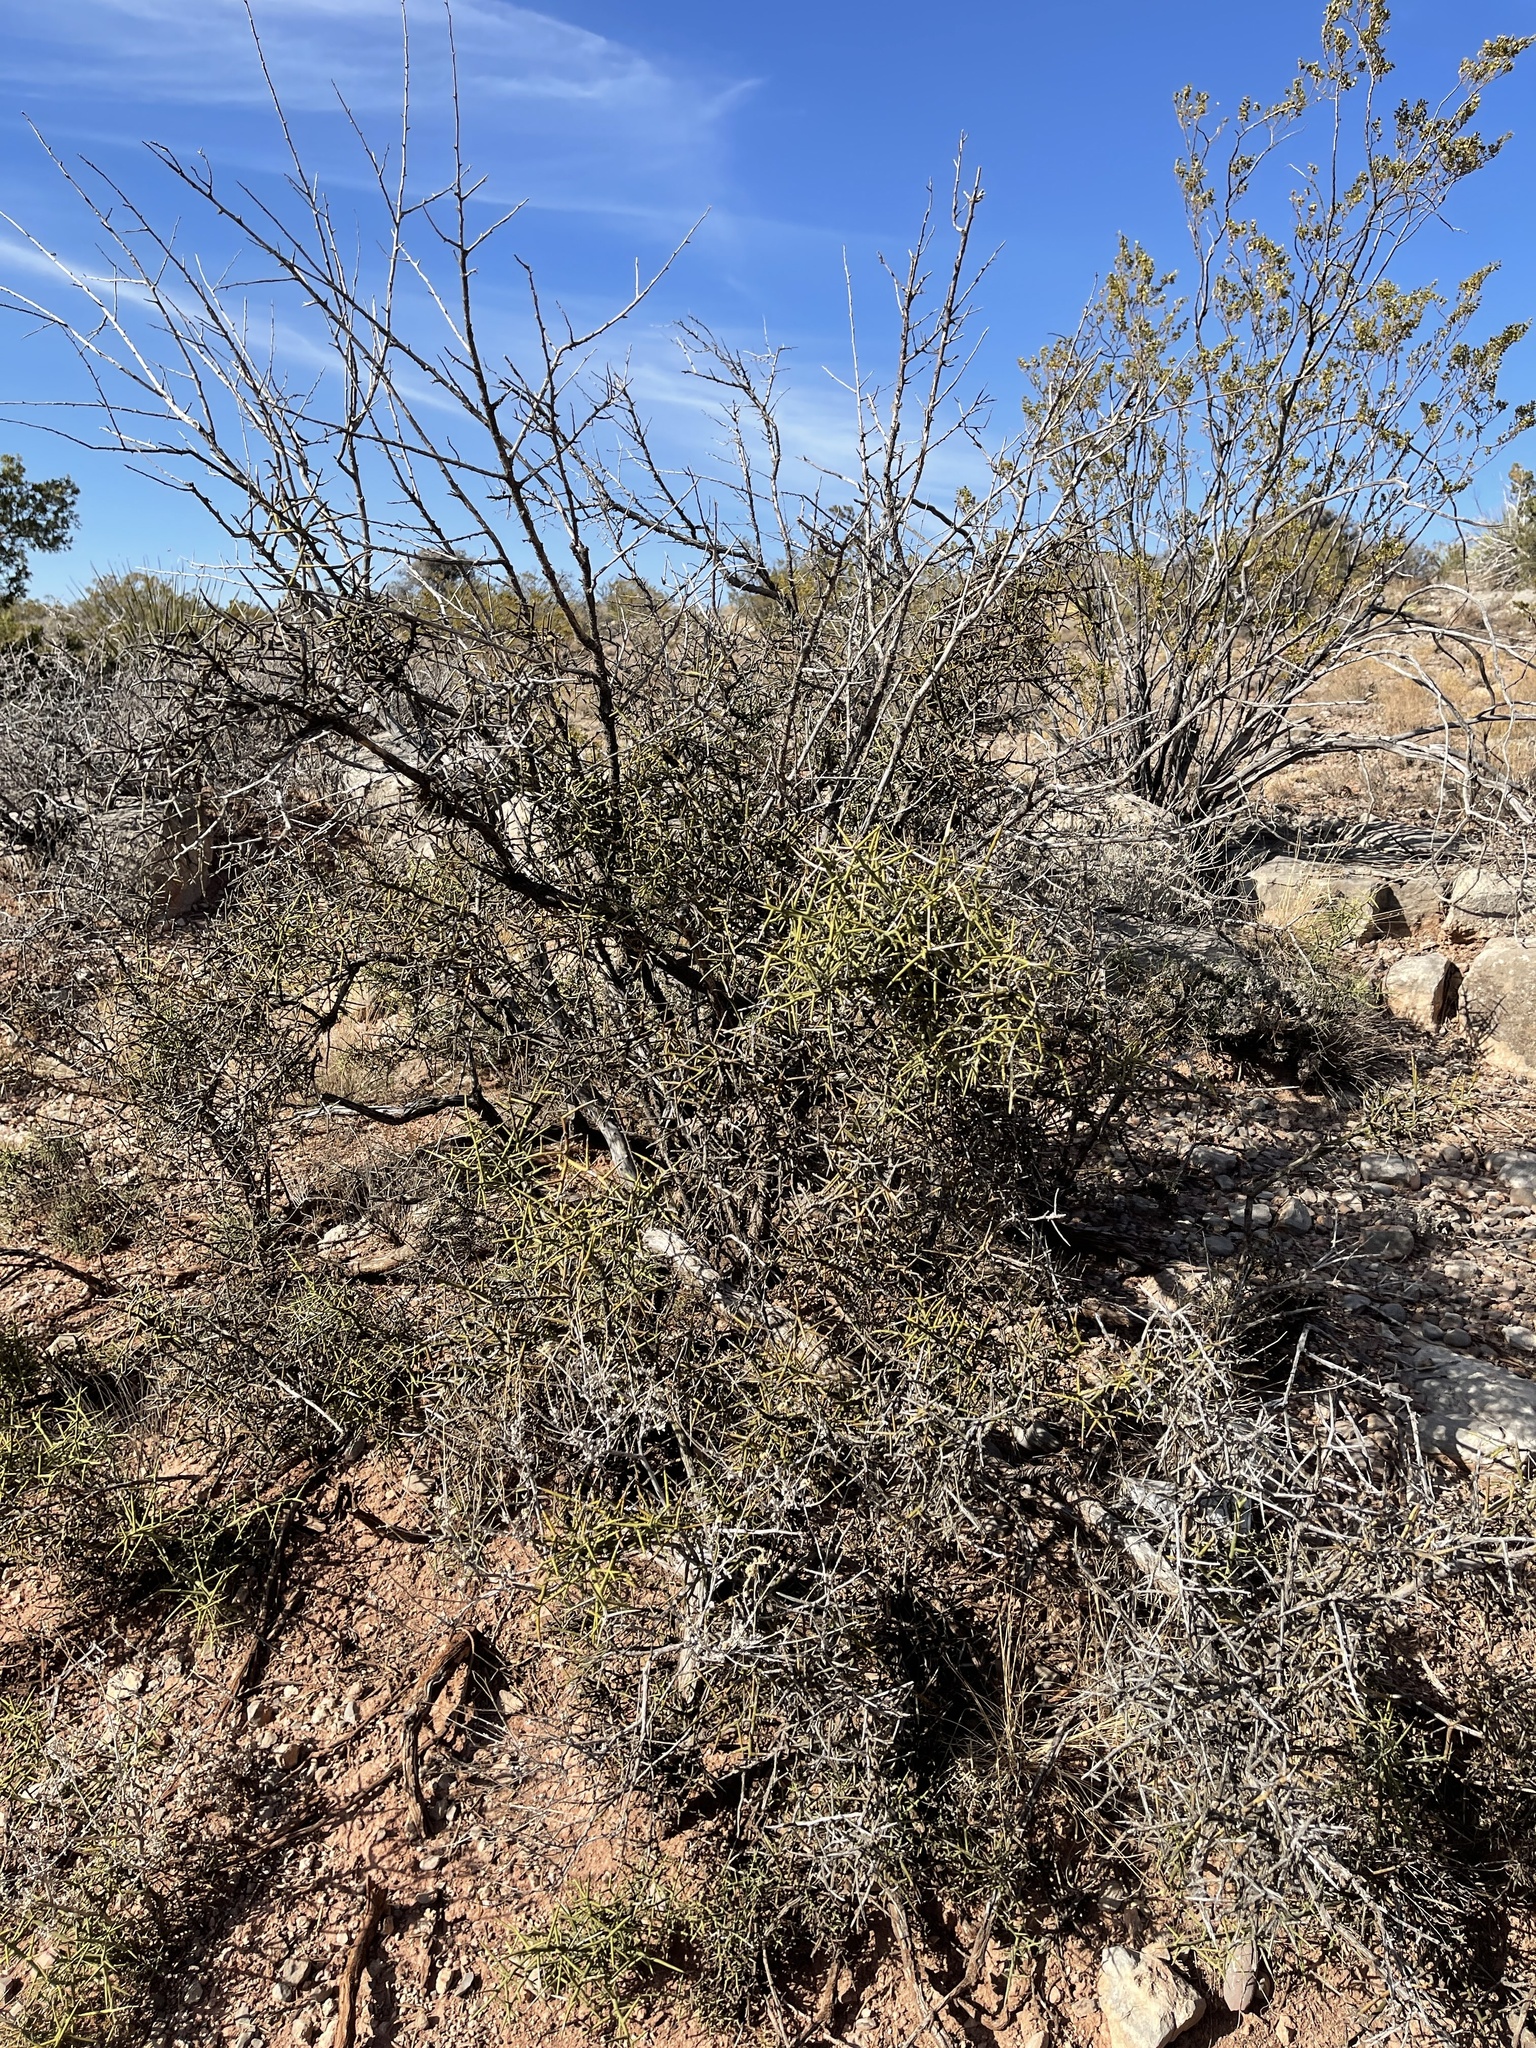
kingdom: Plantae
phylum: Tracheophyta
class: Magnoliopsida
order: Brassicales
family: Koeberliniaceae
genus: Koeberlinia
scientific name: Koeberlinia spinosa
